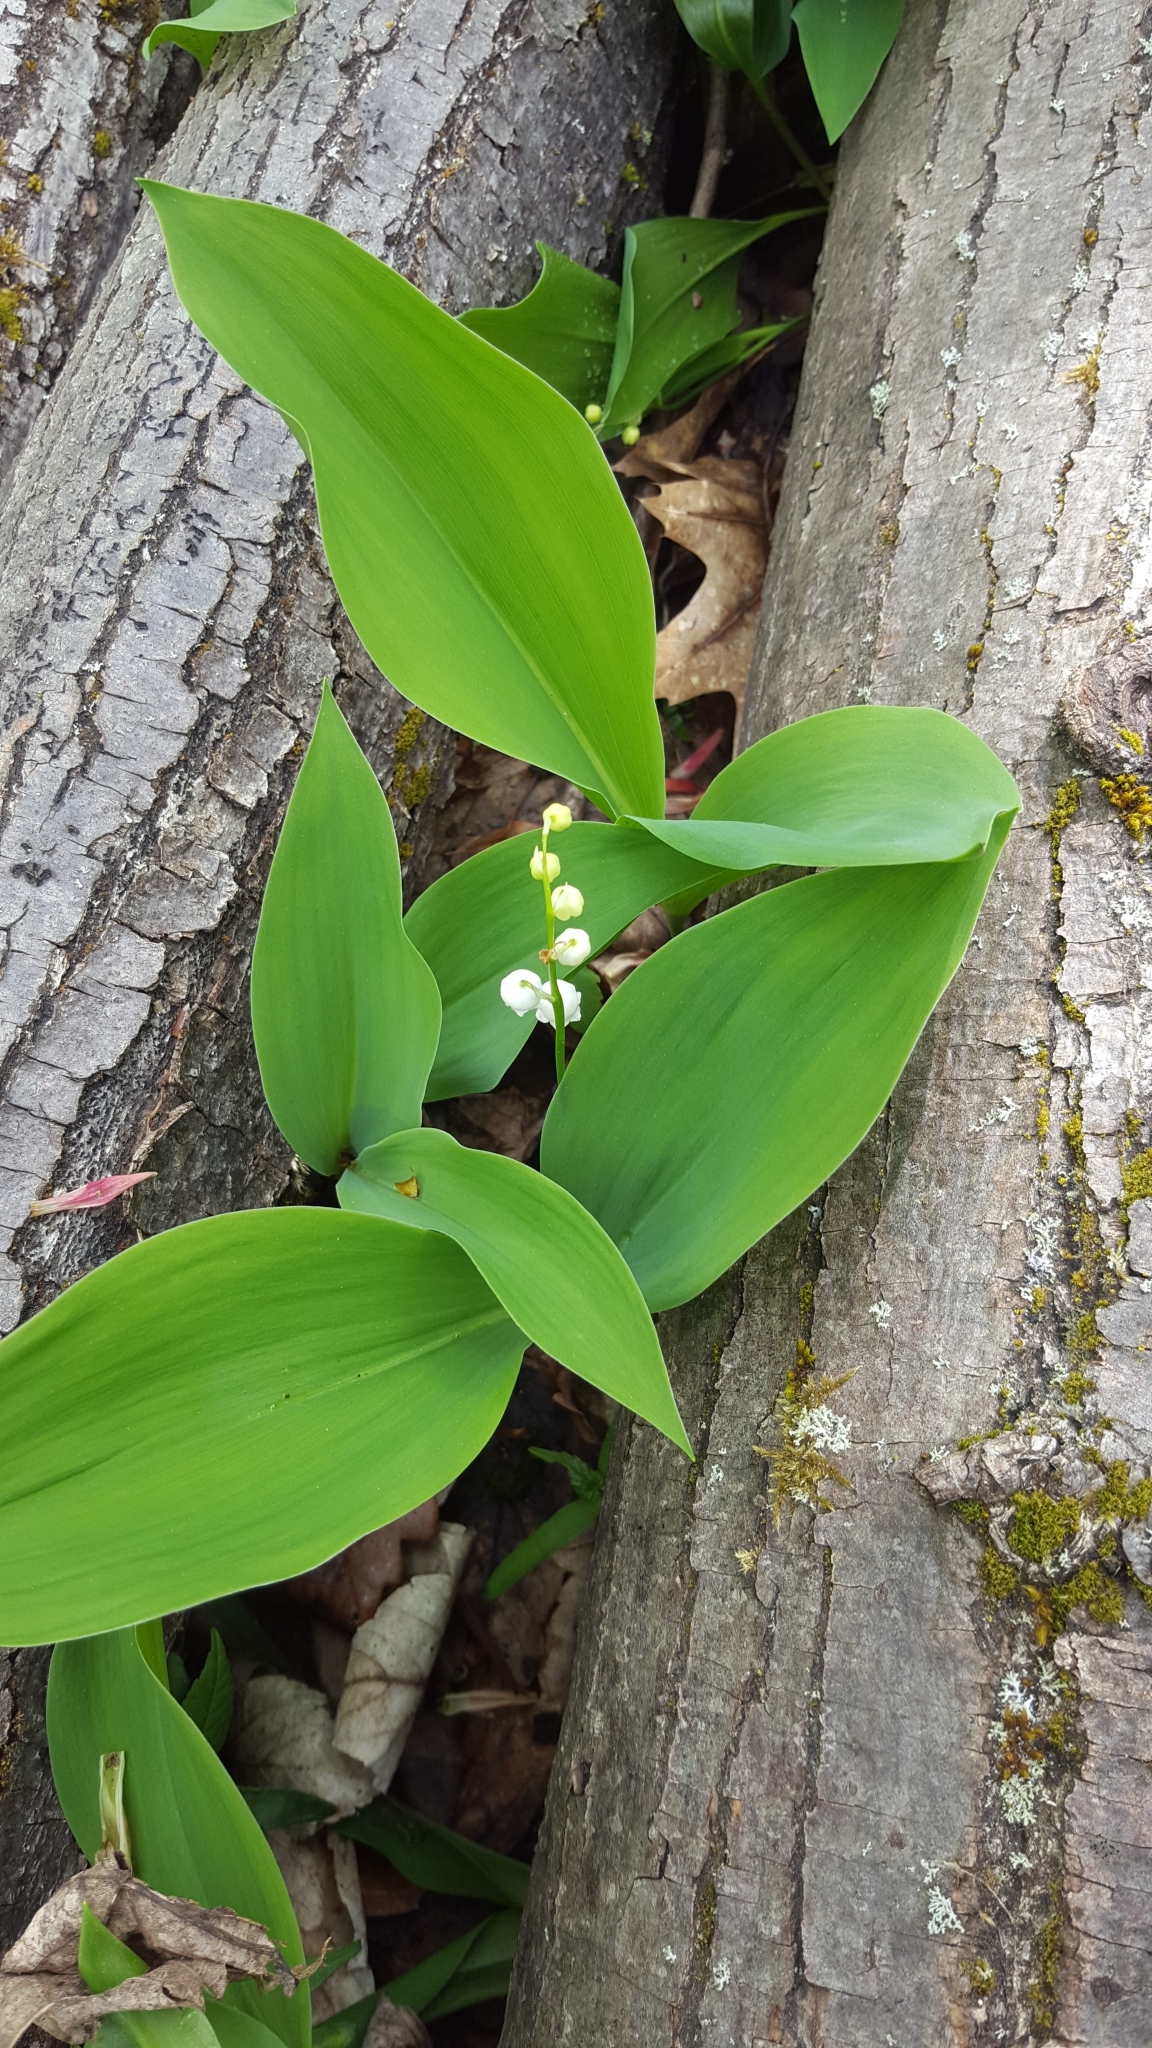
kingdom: Plantae
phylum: Tracheophyta
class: Liliopsida
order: Asparagales
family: Asparagaceae
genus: Convallaria
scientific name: Convallaria majalis
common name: Lily-of-the-valley
